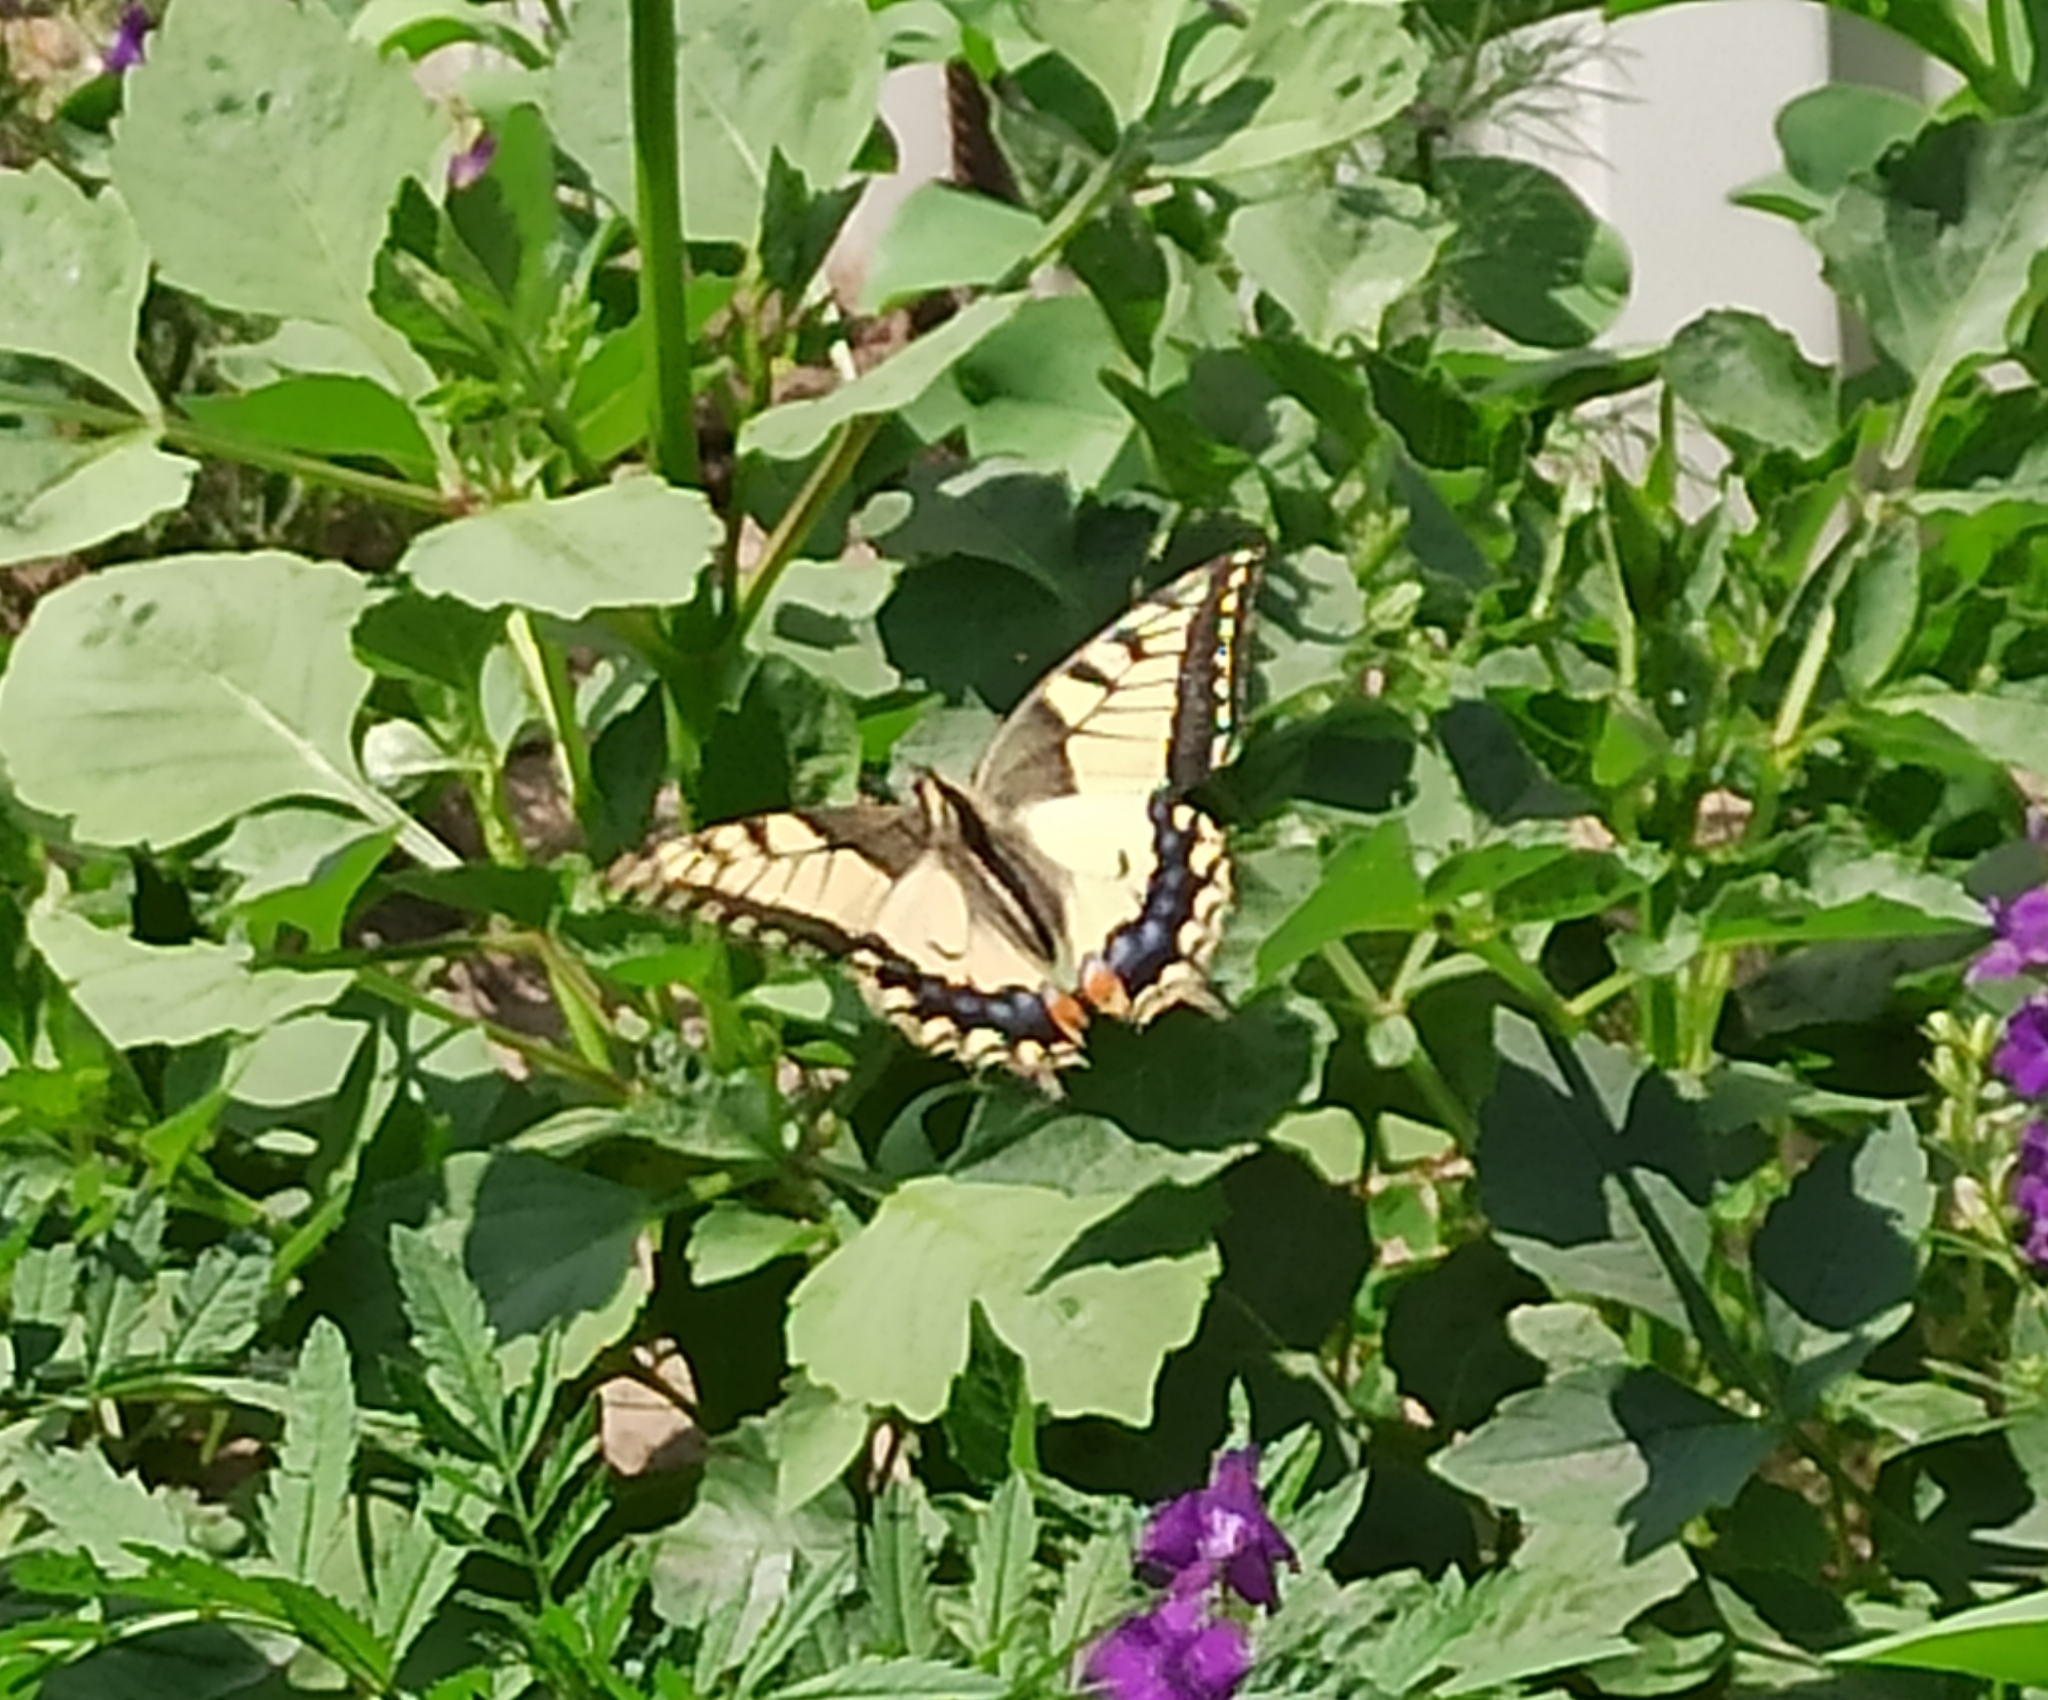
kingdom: Animalia
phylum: Arthropoda
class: Insecta
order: Lepidoptera
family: Papilionidae
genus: Papilio
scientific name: Papilio machaon
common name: Swallowtail
